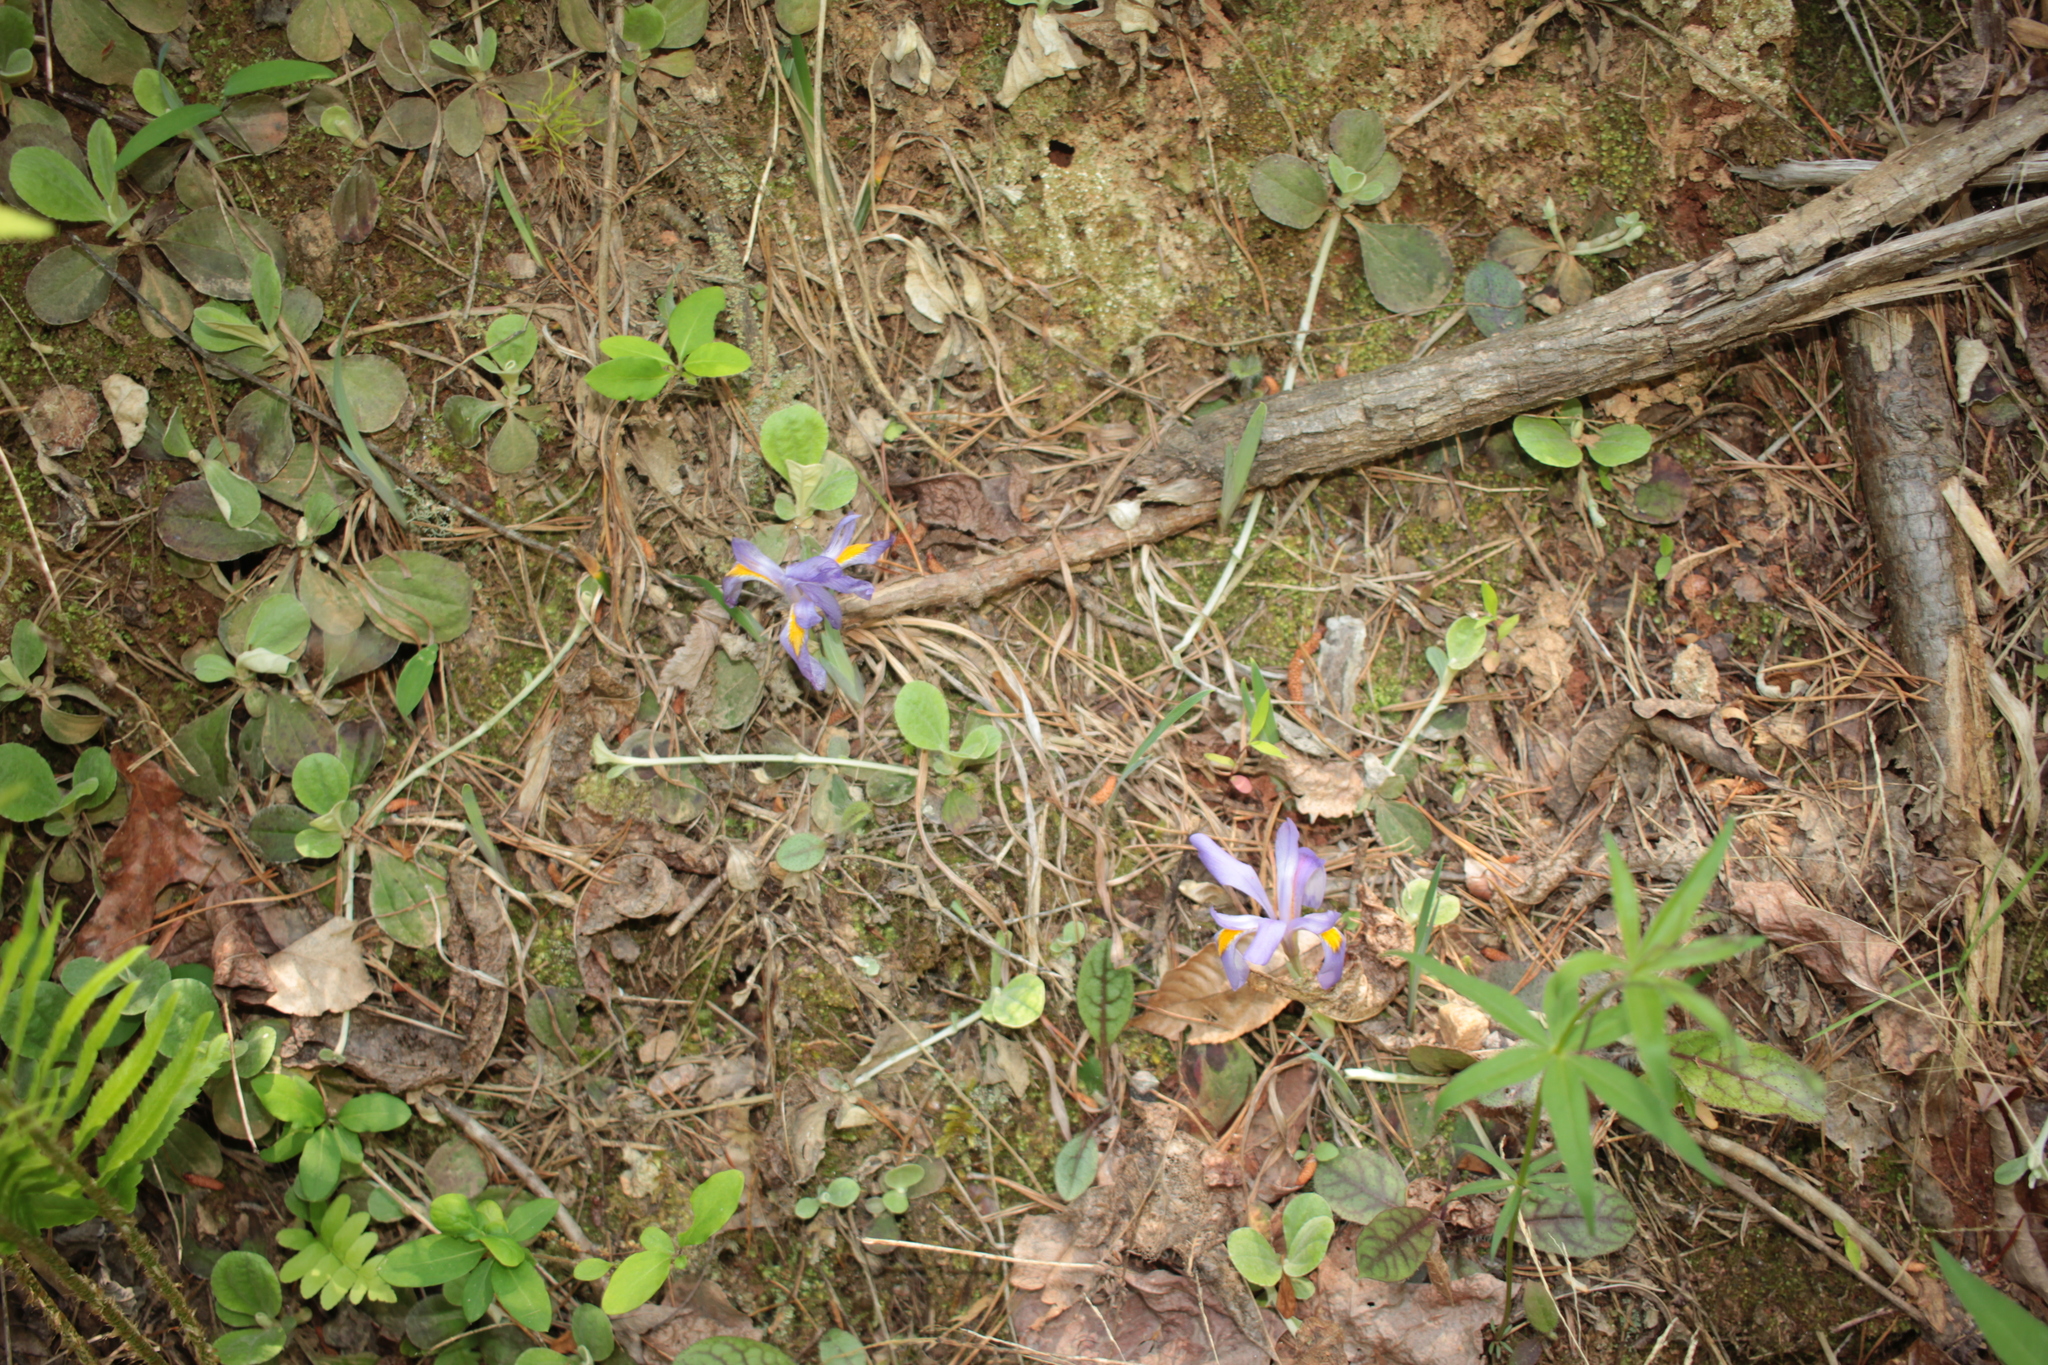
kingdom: Plantae
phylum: Tracheophyta
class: Magnoliopsida
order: Asterales
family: Asteraceae
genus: Coreopsis
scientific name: Coreopsis major
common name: Forest tickseed
